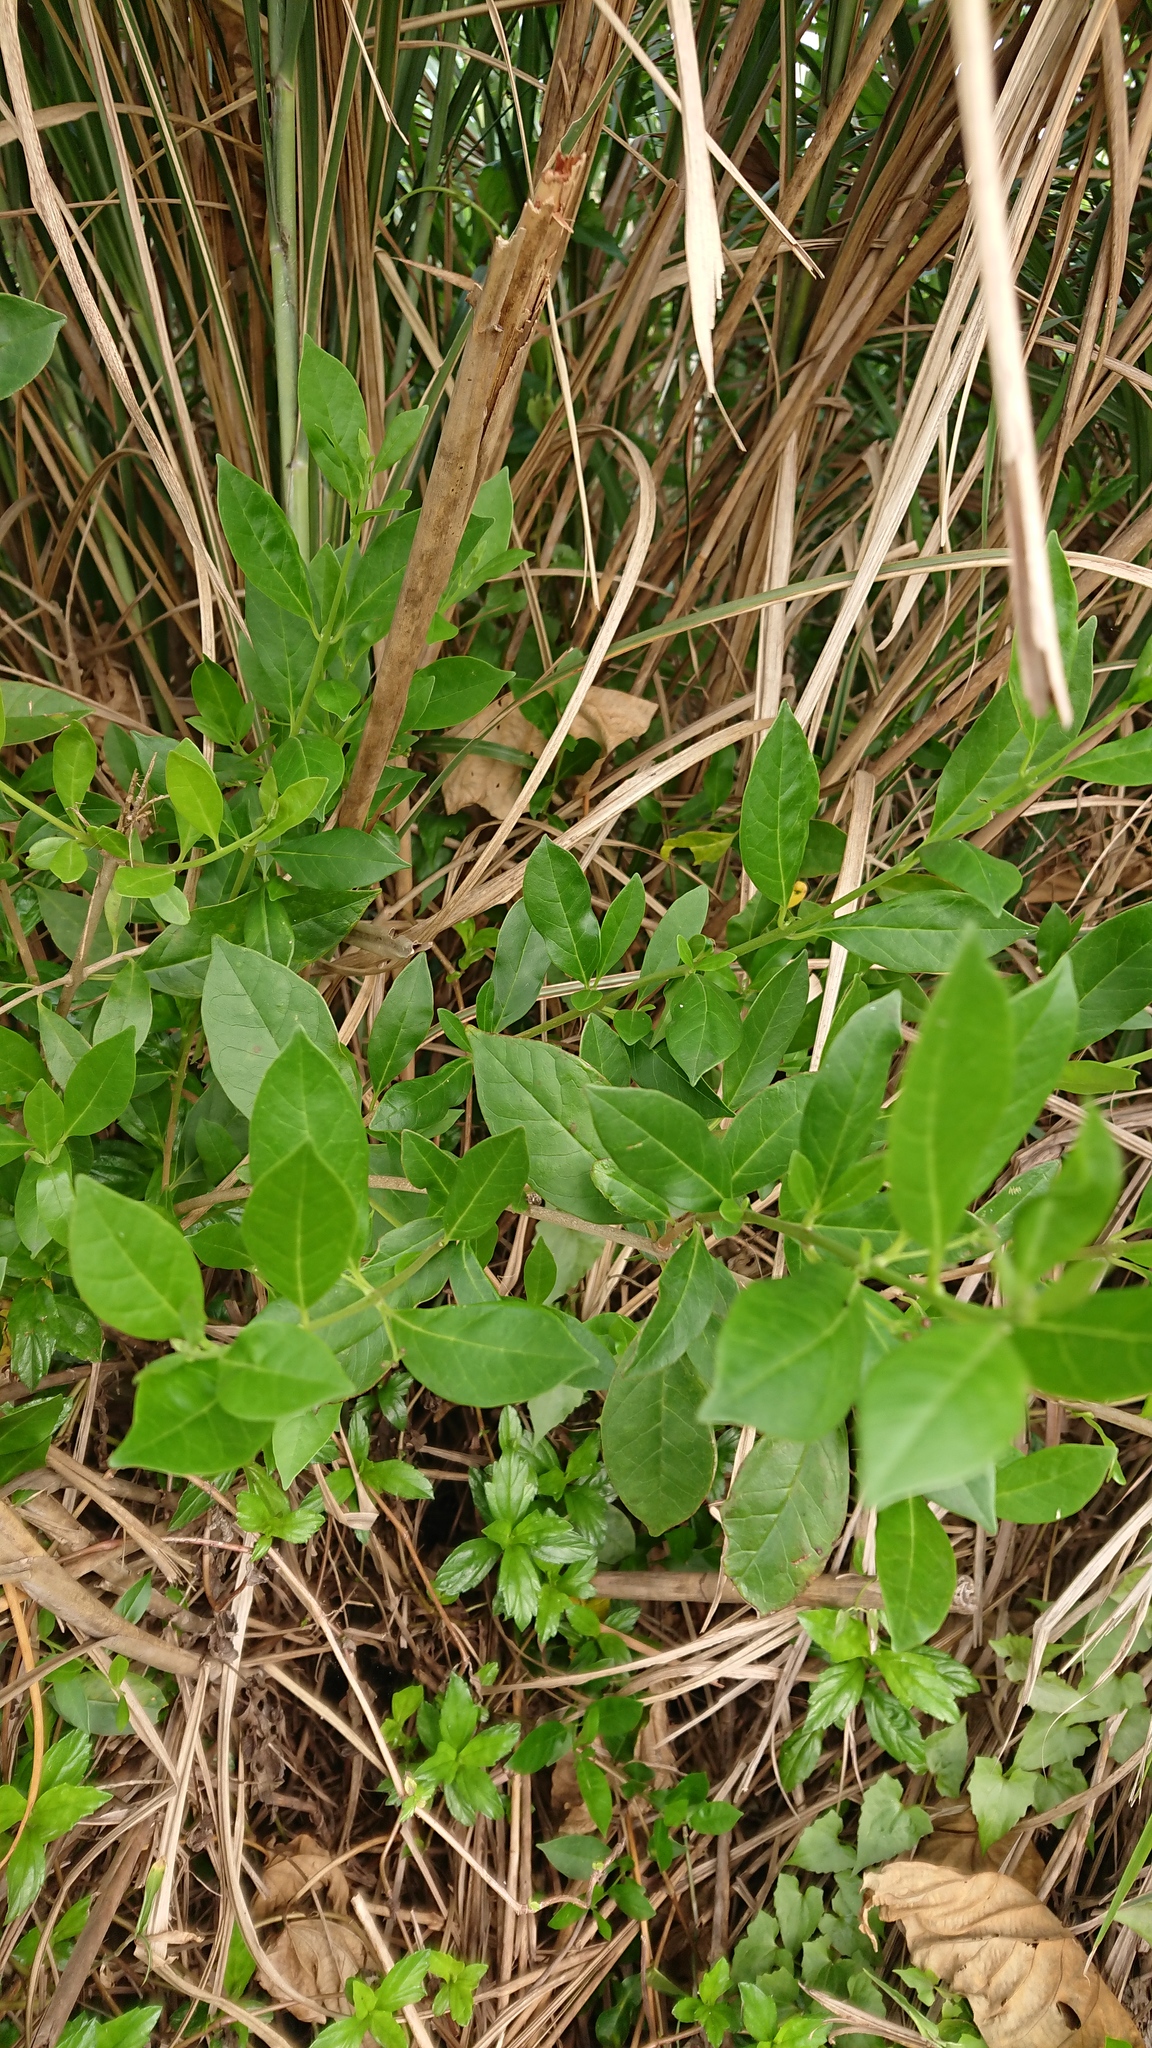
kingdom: Plantae
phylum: Tracheophyta
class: Magnoliopsida
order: Lamiales
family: Lamiaceae
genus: Volkameria
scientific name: Volkameria inermis
